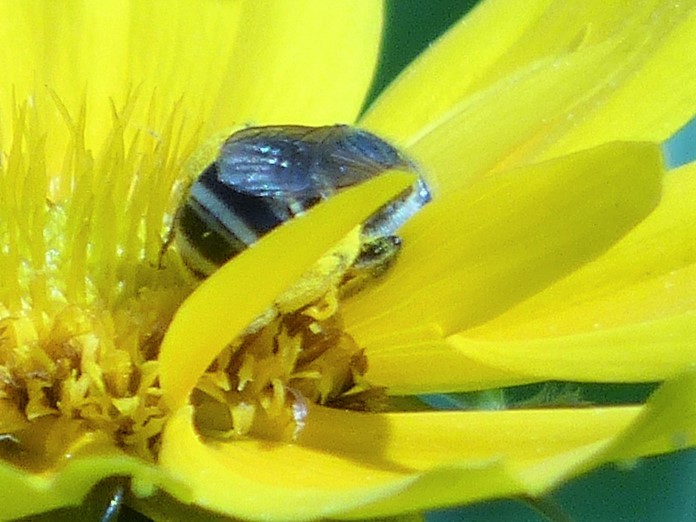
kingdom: Animalia
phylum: Arthropoda
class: Insecta
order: Hymenoptera
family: Halictidae
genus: Halictus
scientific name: Halictus ligatus
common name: Ligated furrow bee
